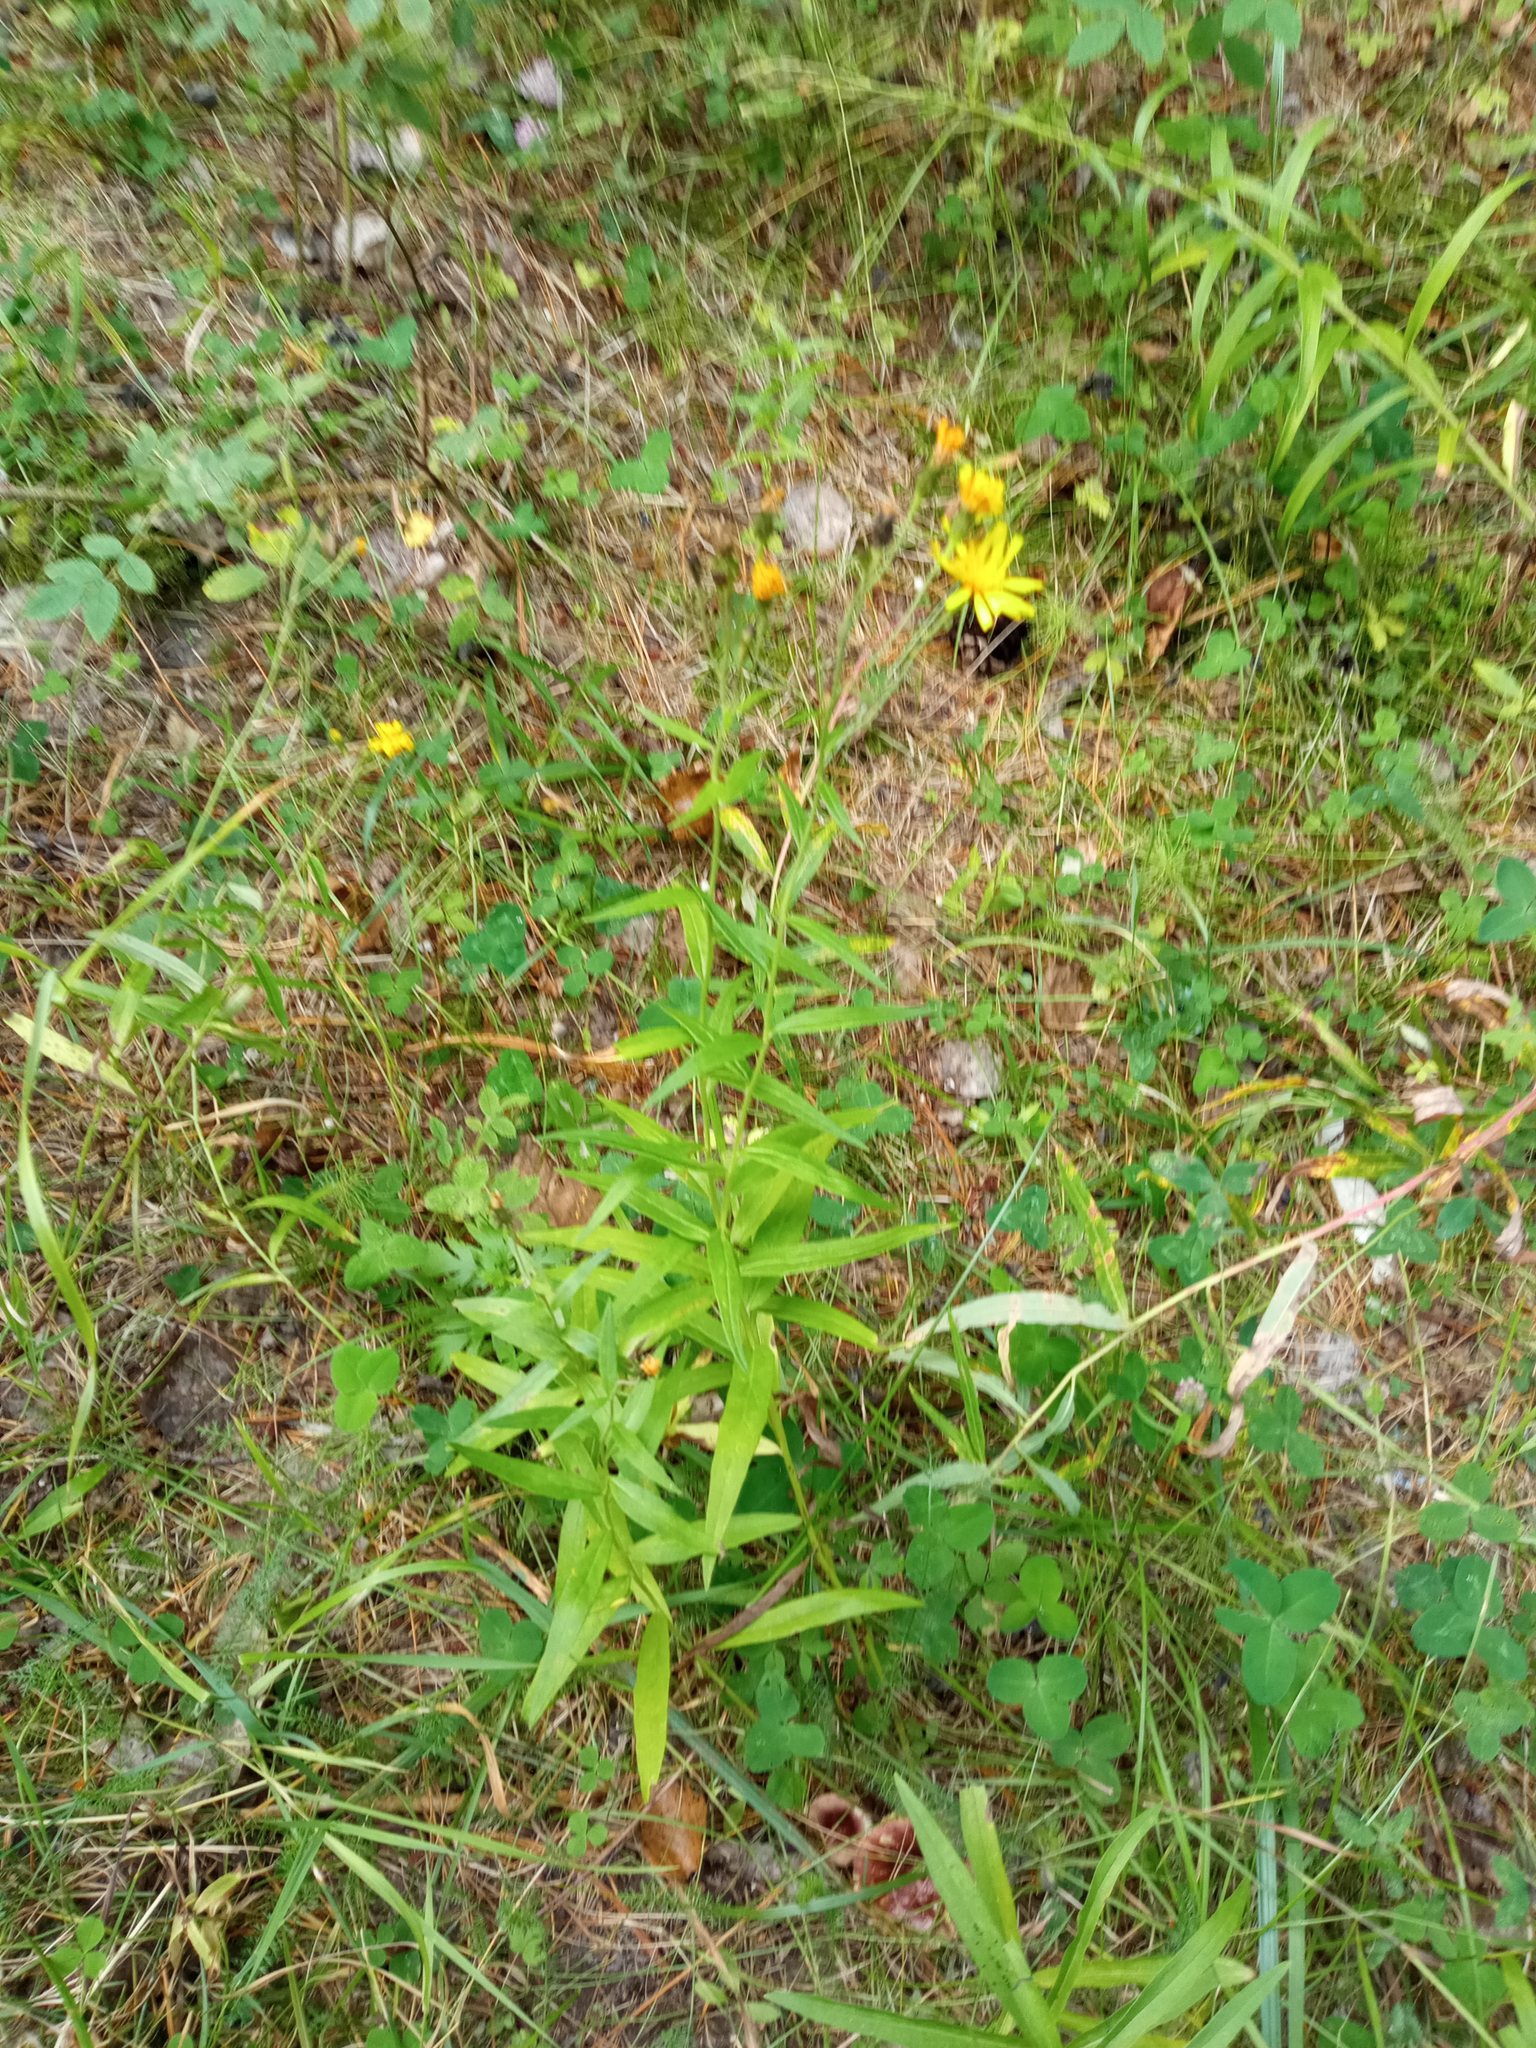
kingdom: Plantae
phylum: Tracheophyta
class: Magnoliopsida
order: Asterales
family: Asteraceae
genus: Hieracium
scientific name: Hieracium umbellatum
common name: Northern hawkweed
